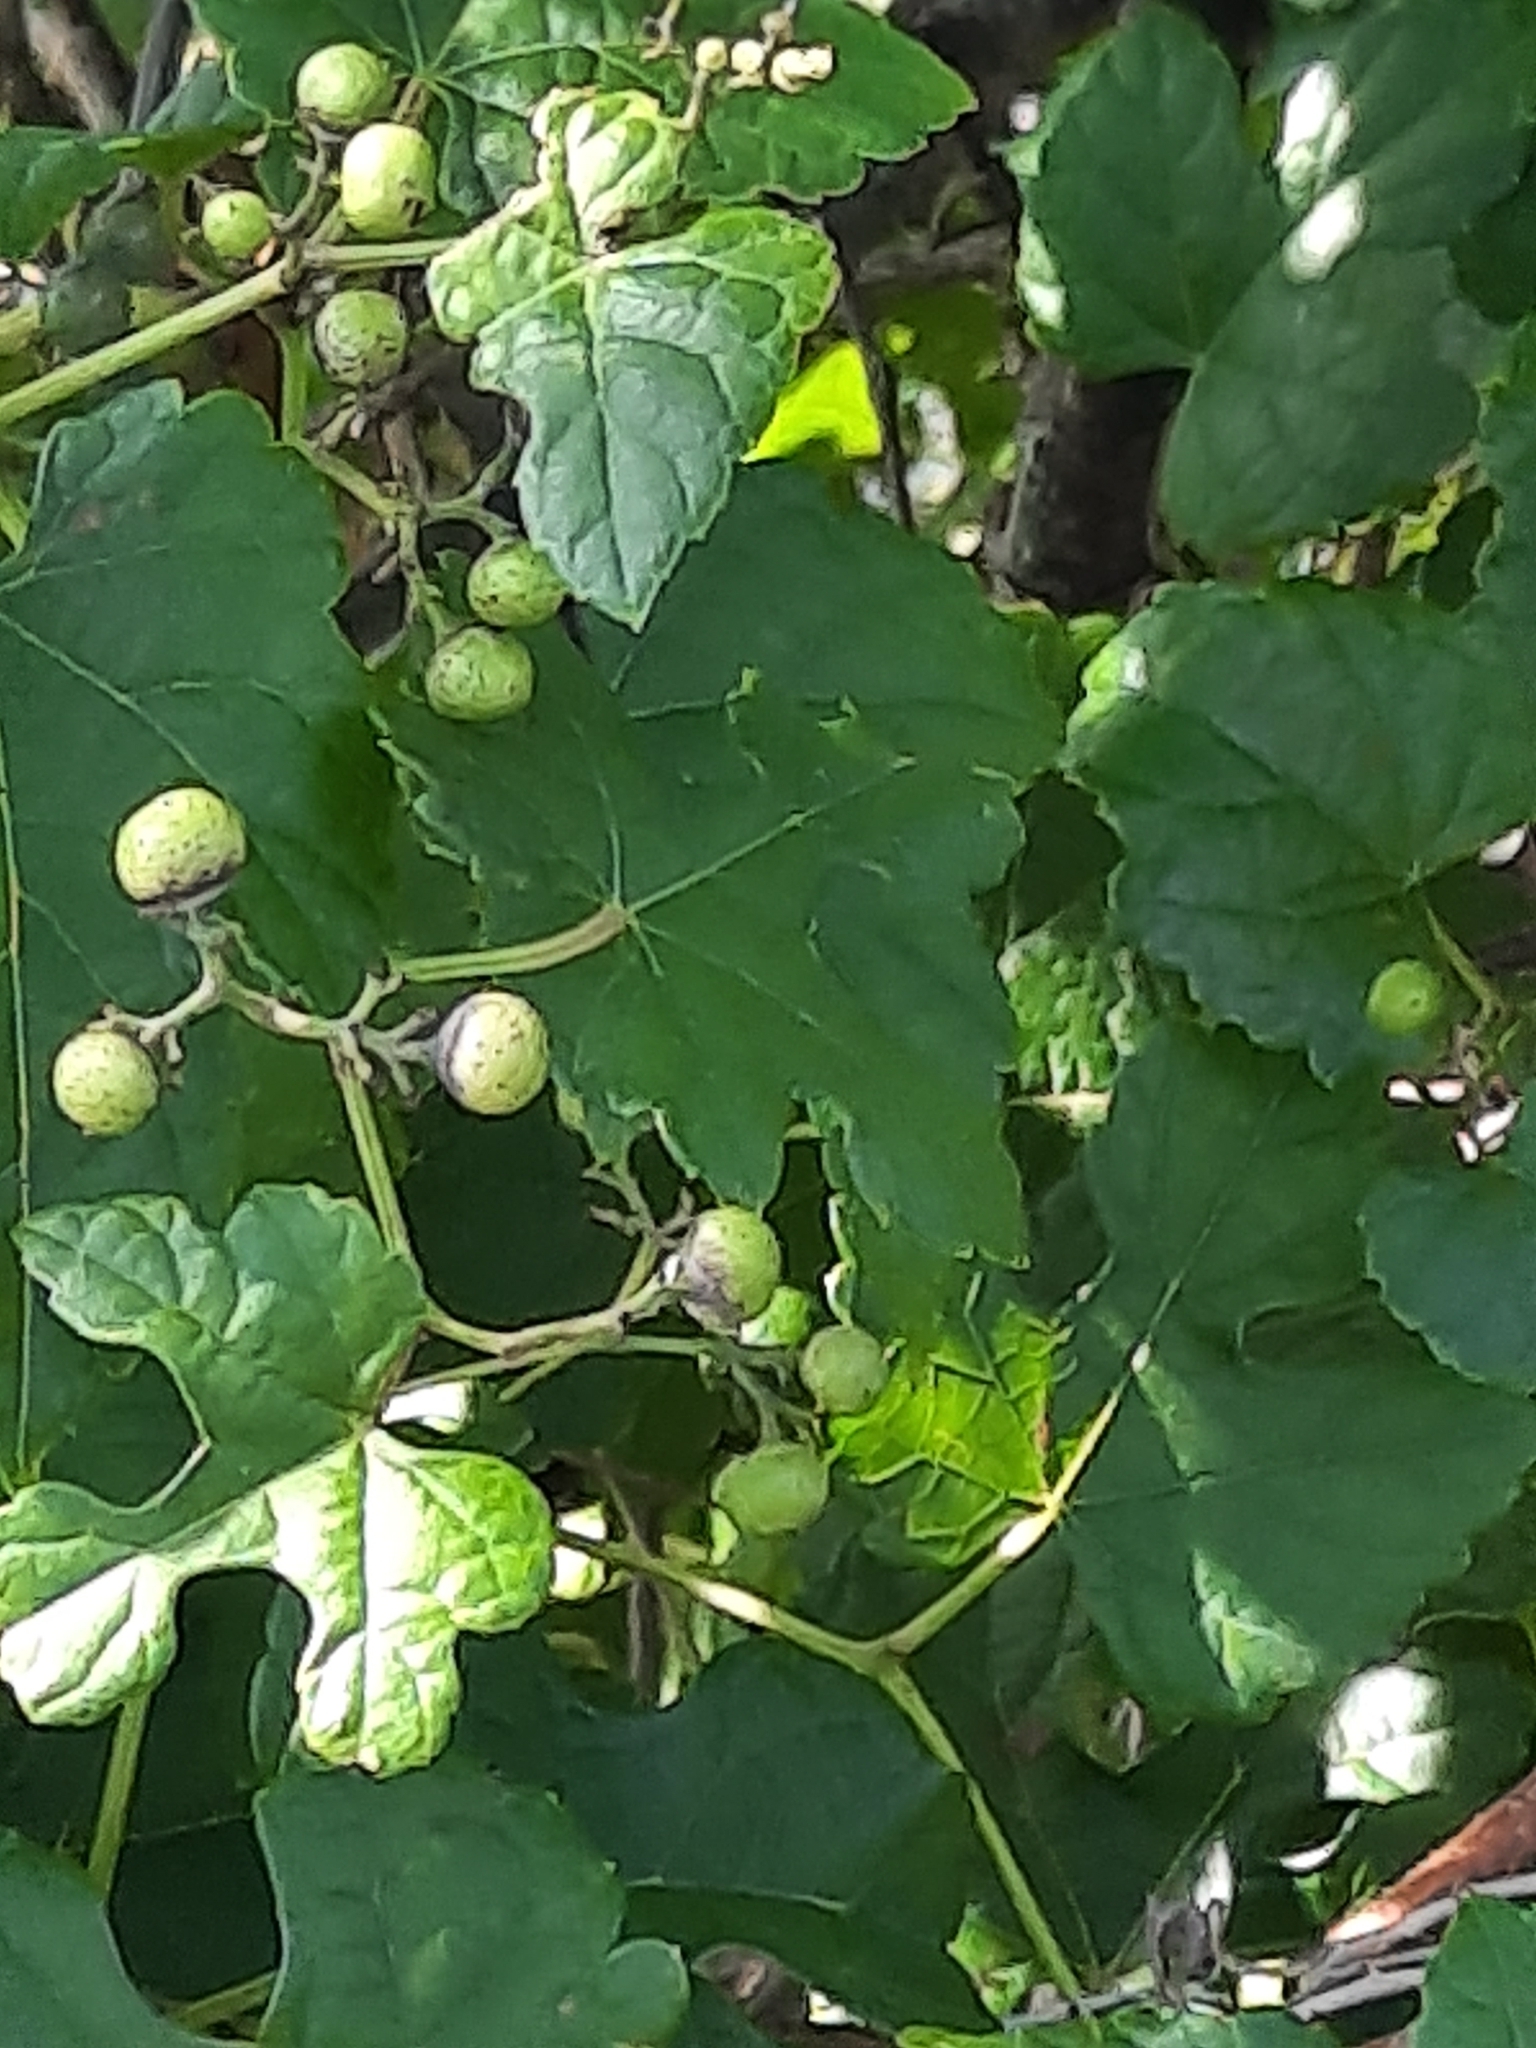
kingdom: Plantae
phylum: Tracheophyta
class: Magnoliopsida
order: Vitales
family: Vitaceae
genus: Ampelopsis
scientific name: Ampelopsis glandulosa
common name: Amur peppervine
